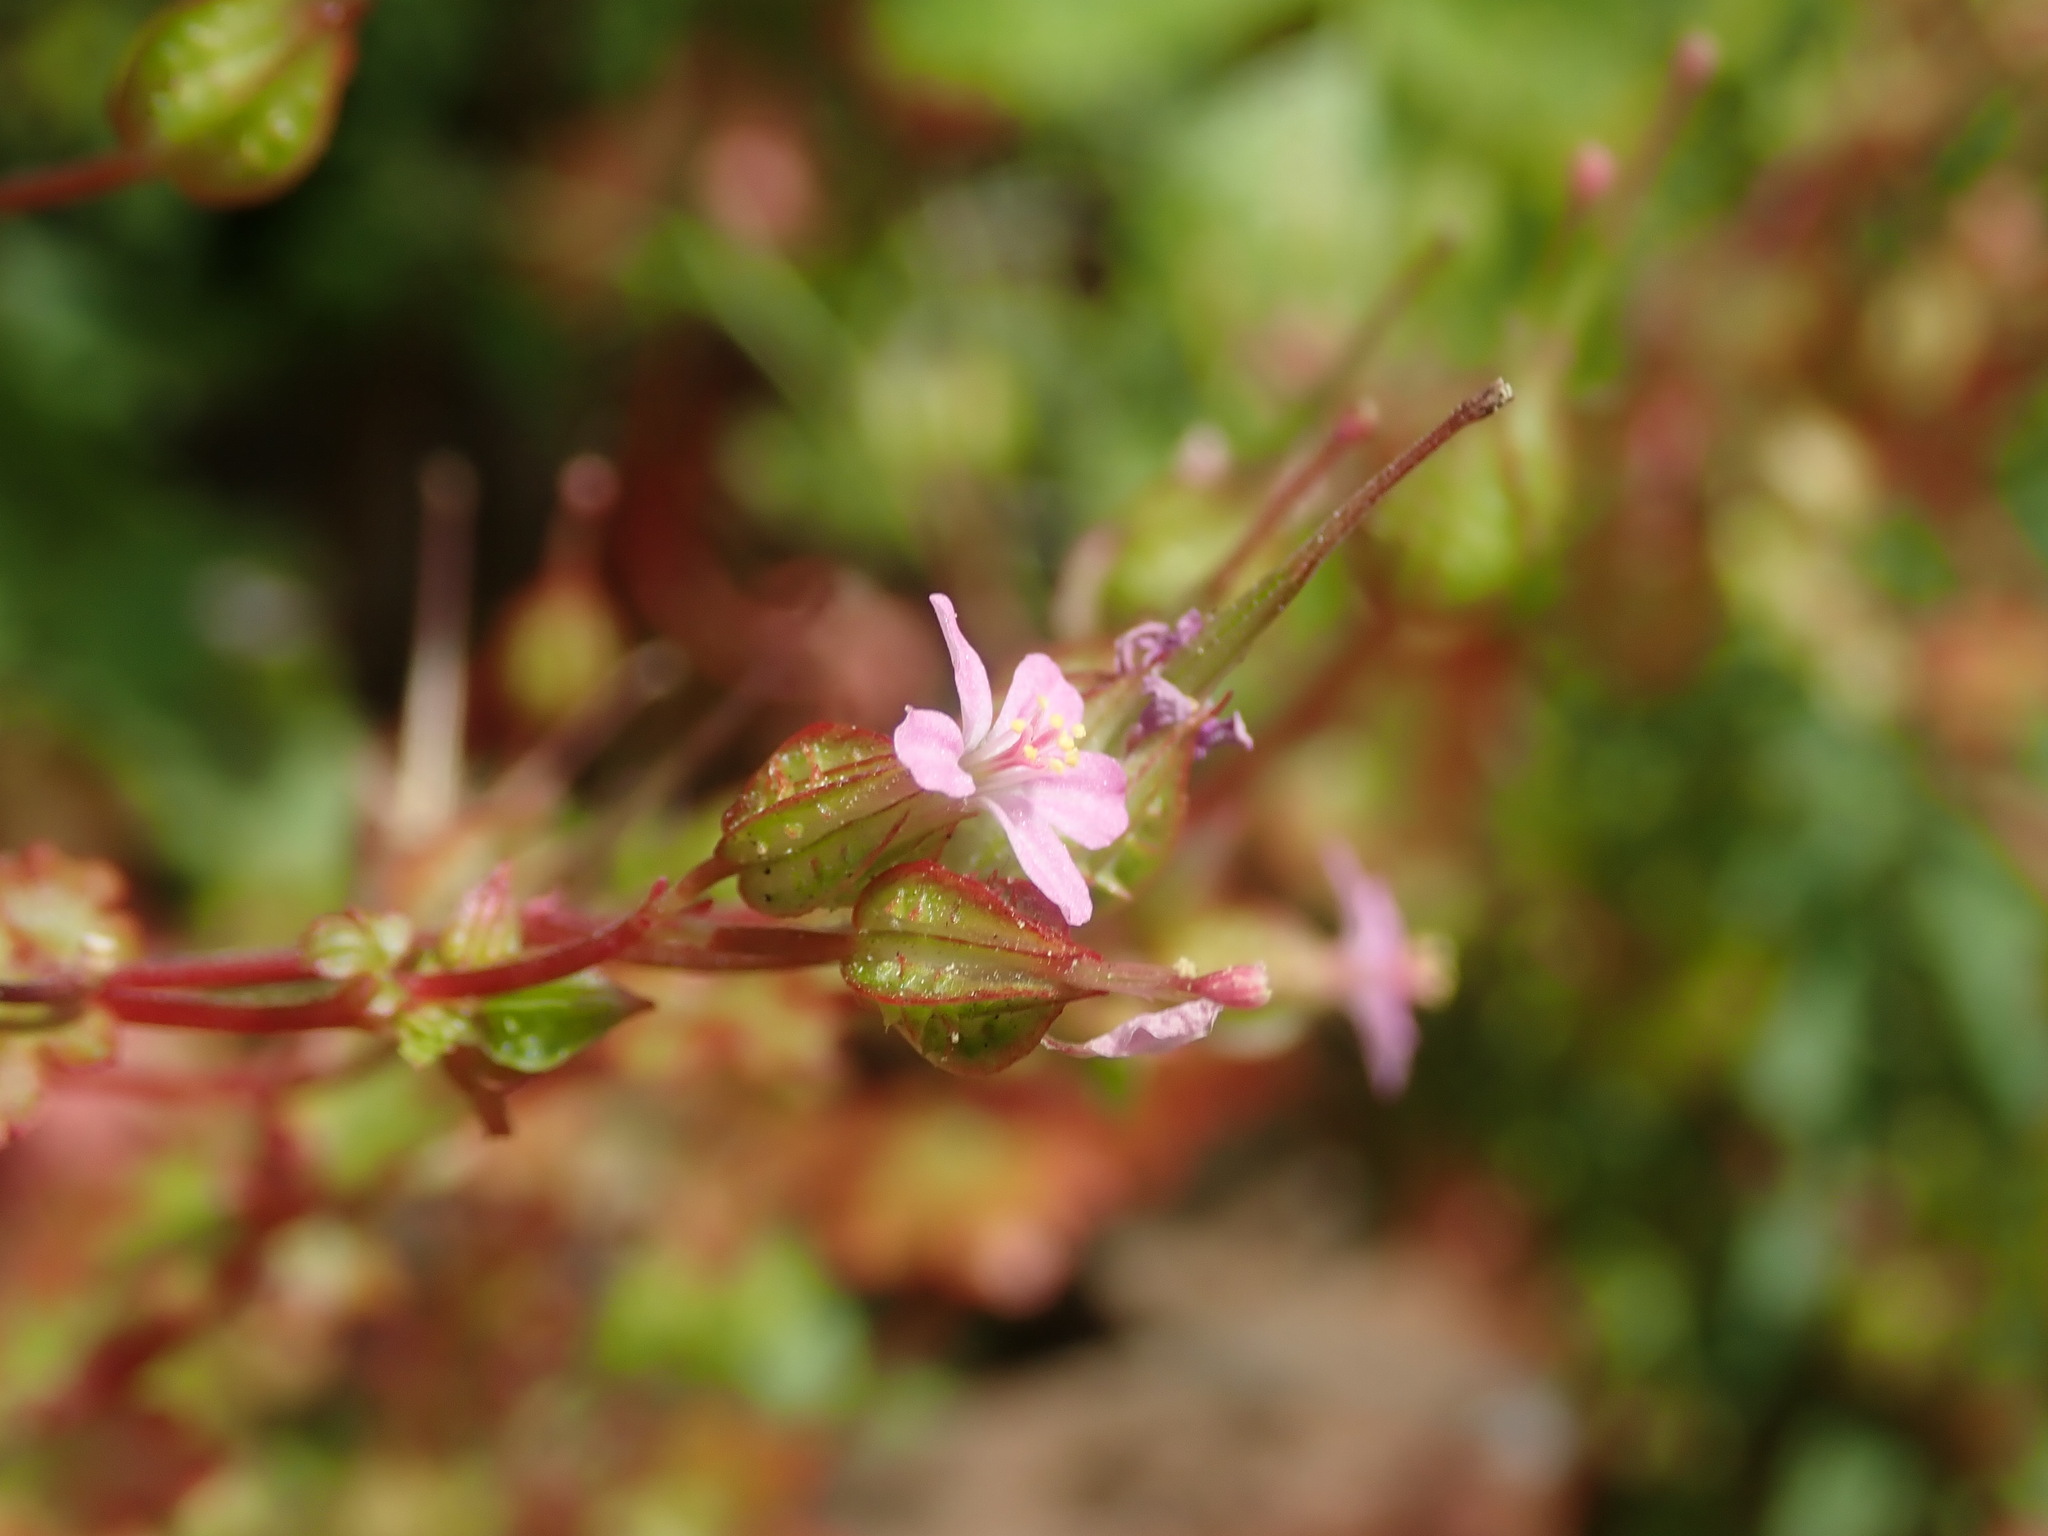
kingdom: Plantae
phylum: Tracheophyta
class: Magnoliopsida
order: Geraniales
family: Geraniaceae
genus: Geranium
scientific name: Geranium lucidum
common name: Shining crane's-bill
